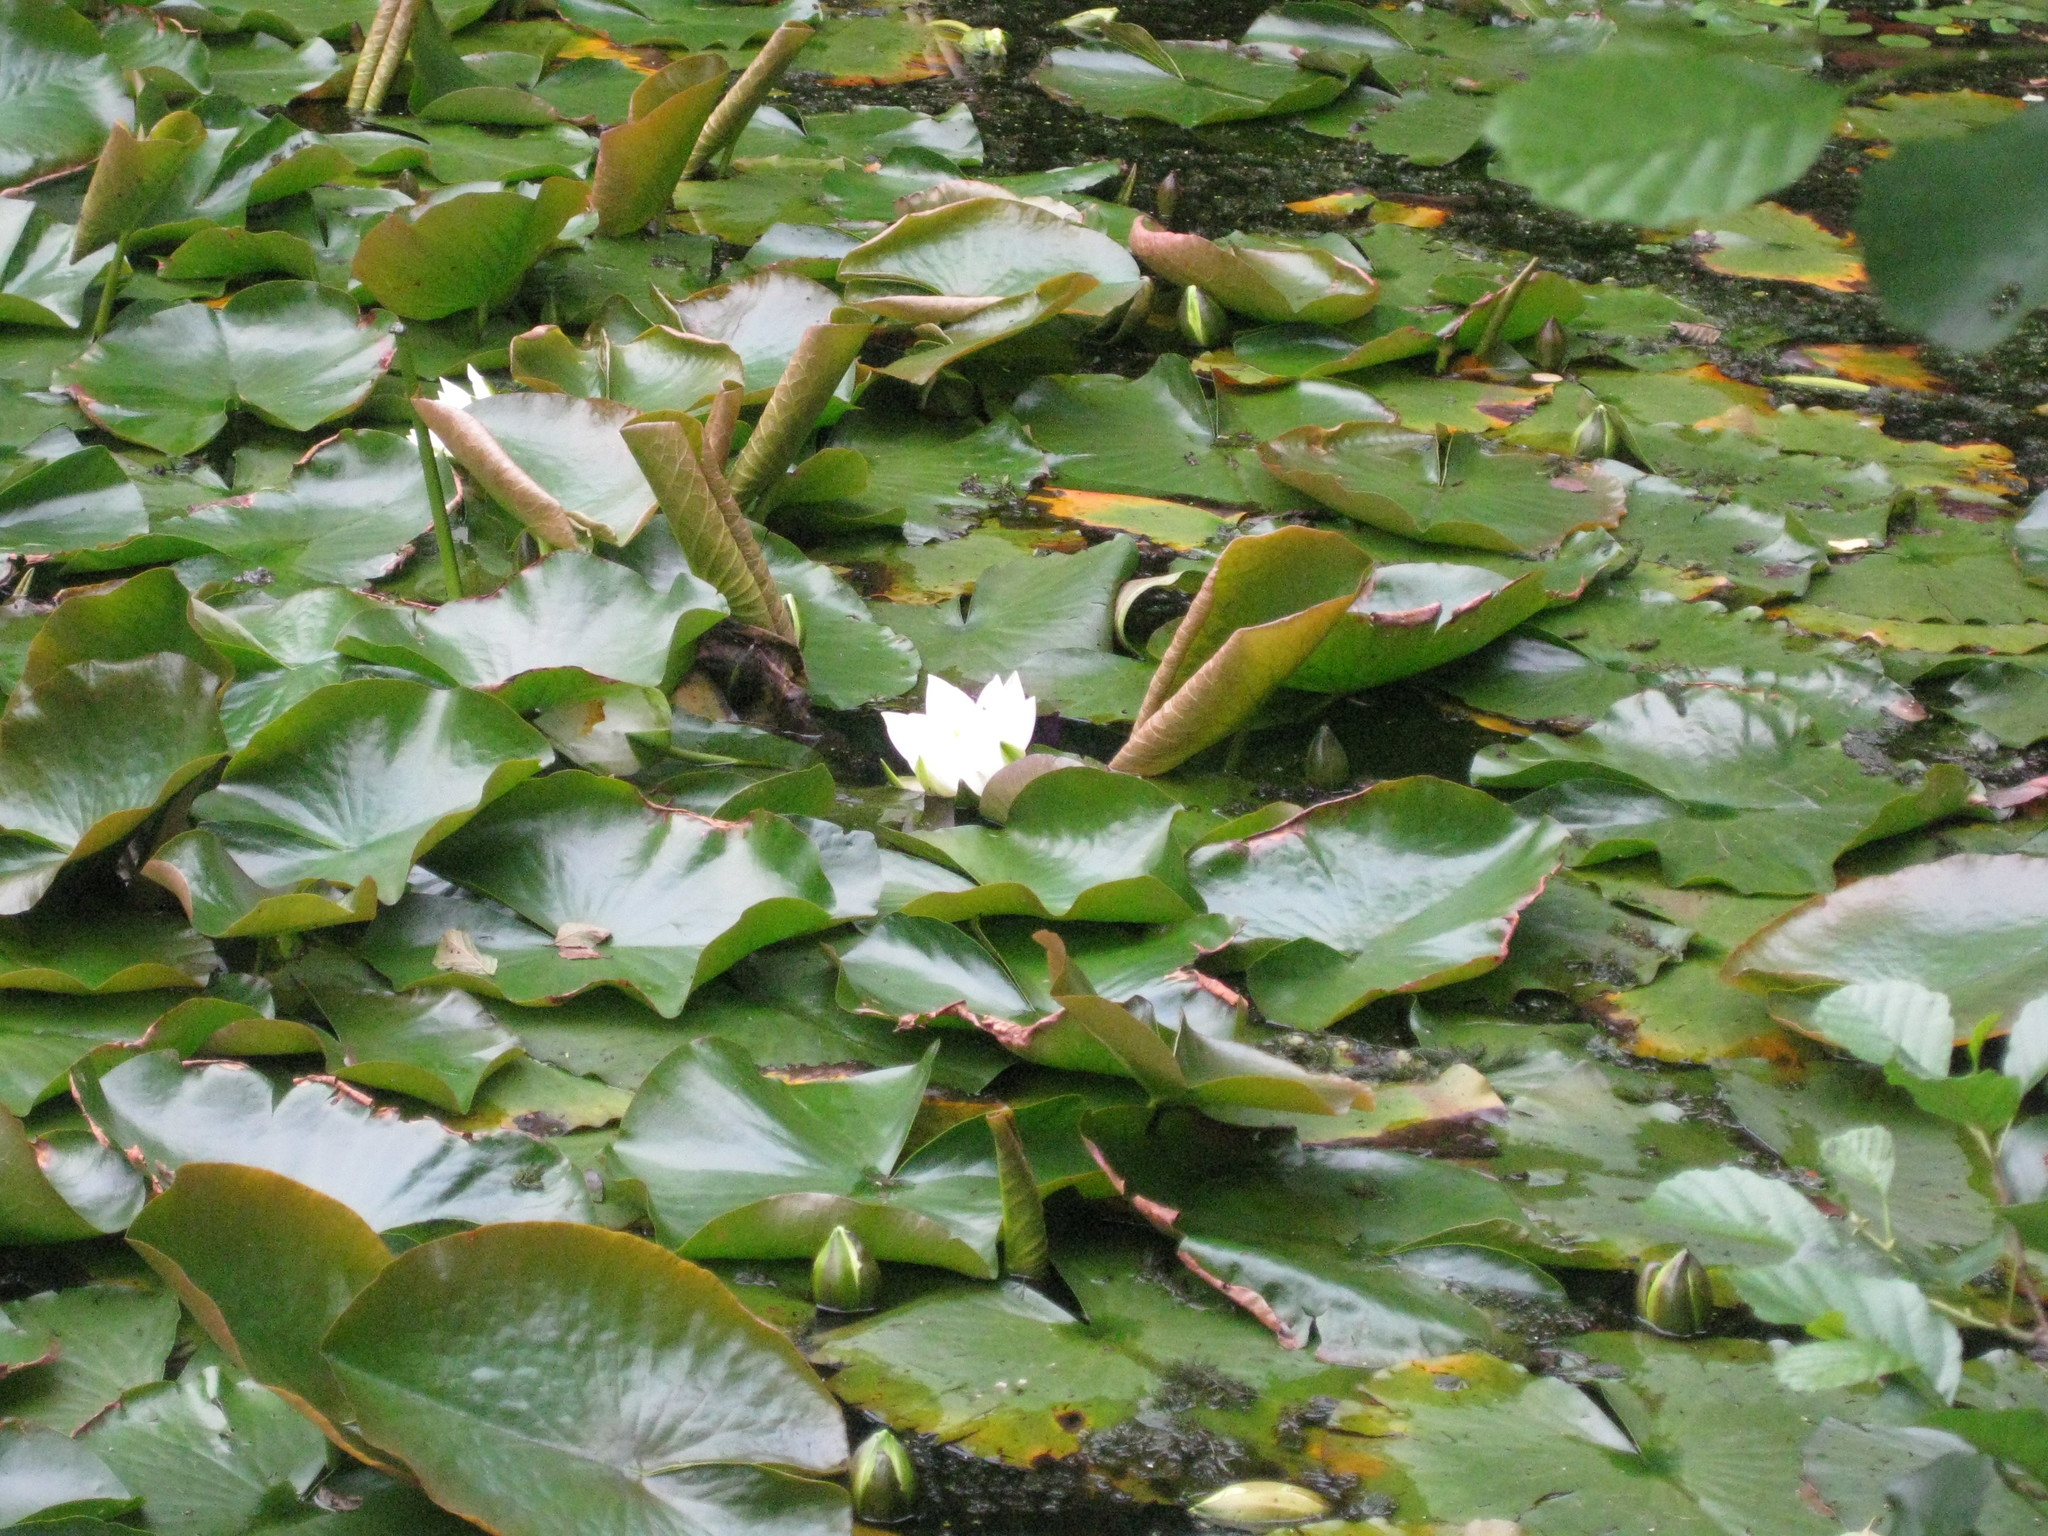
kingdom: Plantae
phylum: Tracheophyta
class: Magnoliopsida
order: Nymphaeales
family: Nymphaeaceae
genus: Nymphaea
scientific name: Nymphaea alba
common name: White water-lily
